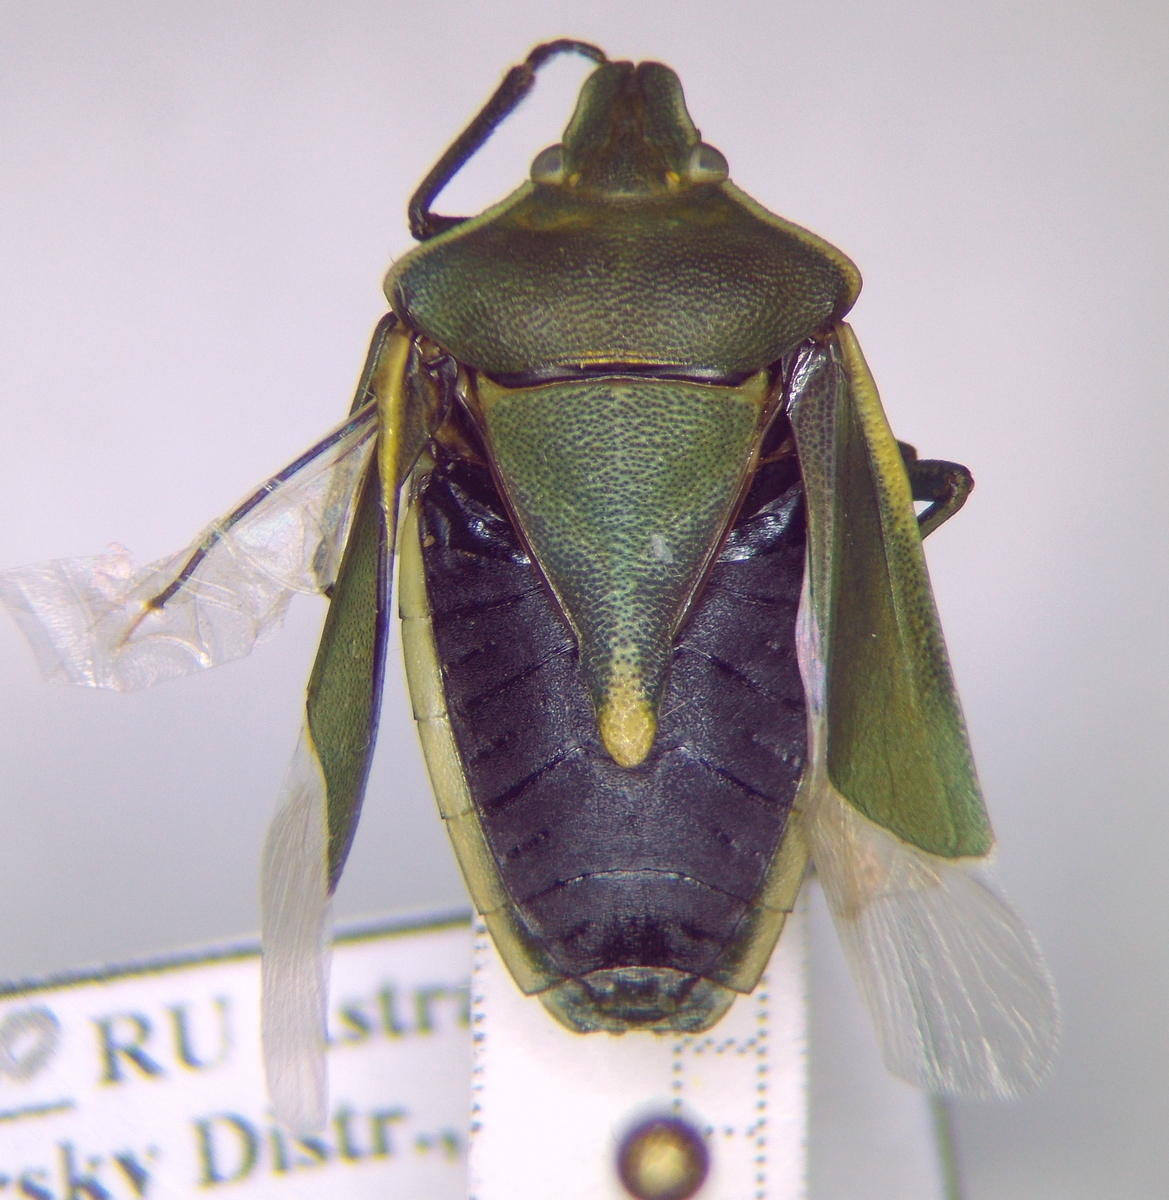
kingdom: Animalia
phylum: Arthropoda
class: Insecta
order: Hemiptera
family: Pentatomidae
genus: Brachynema
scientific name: Brachynema germarii
